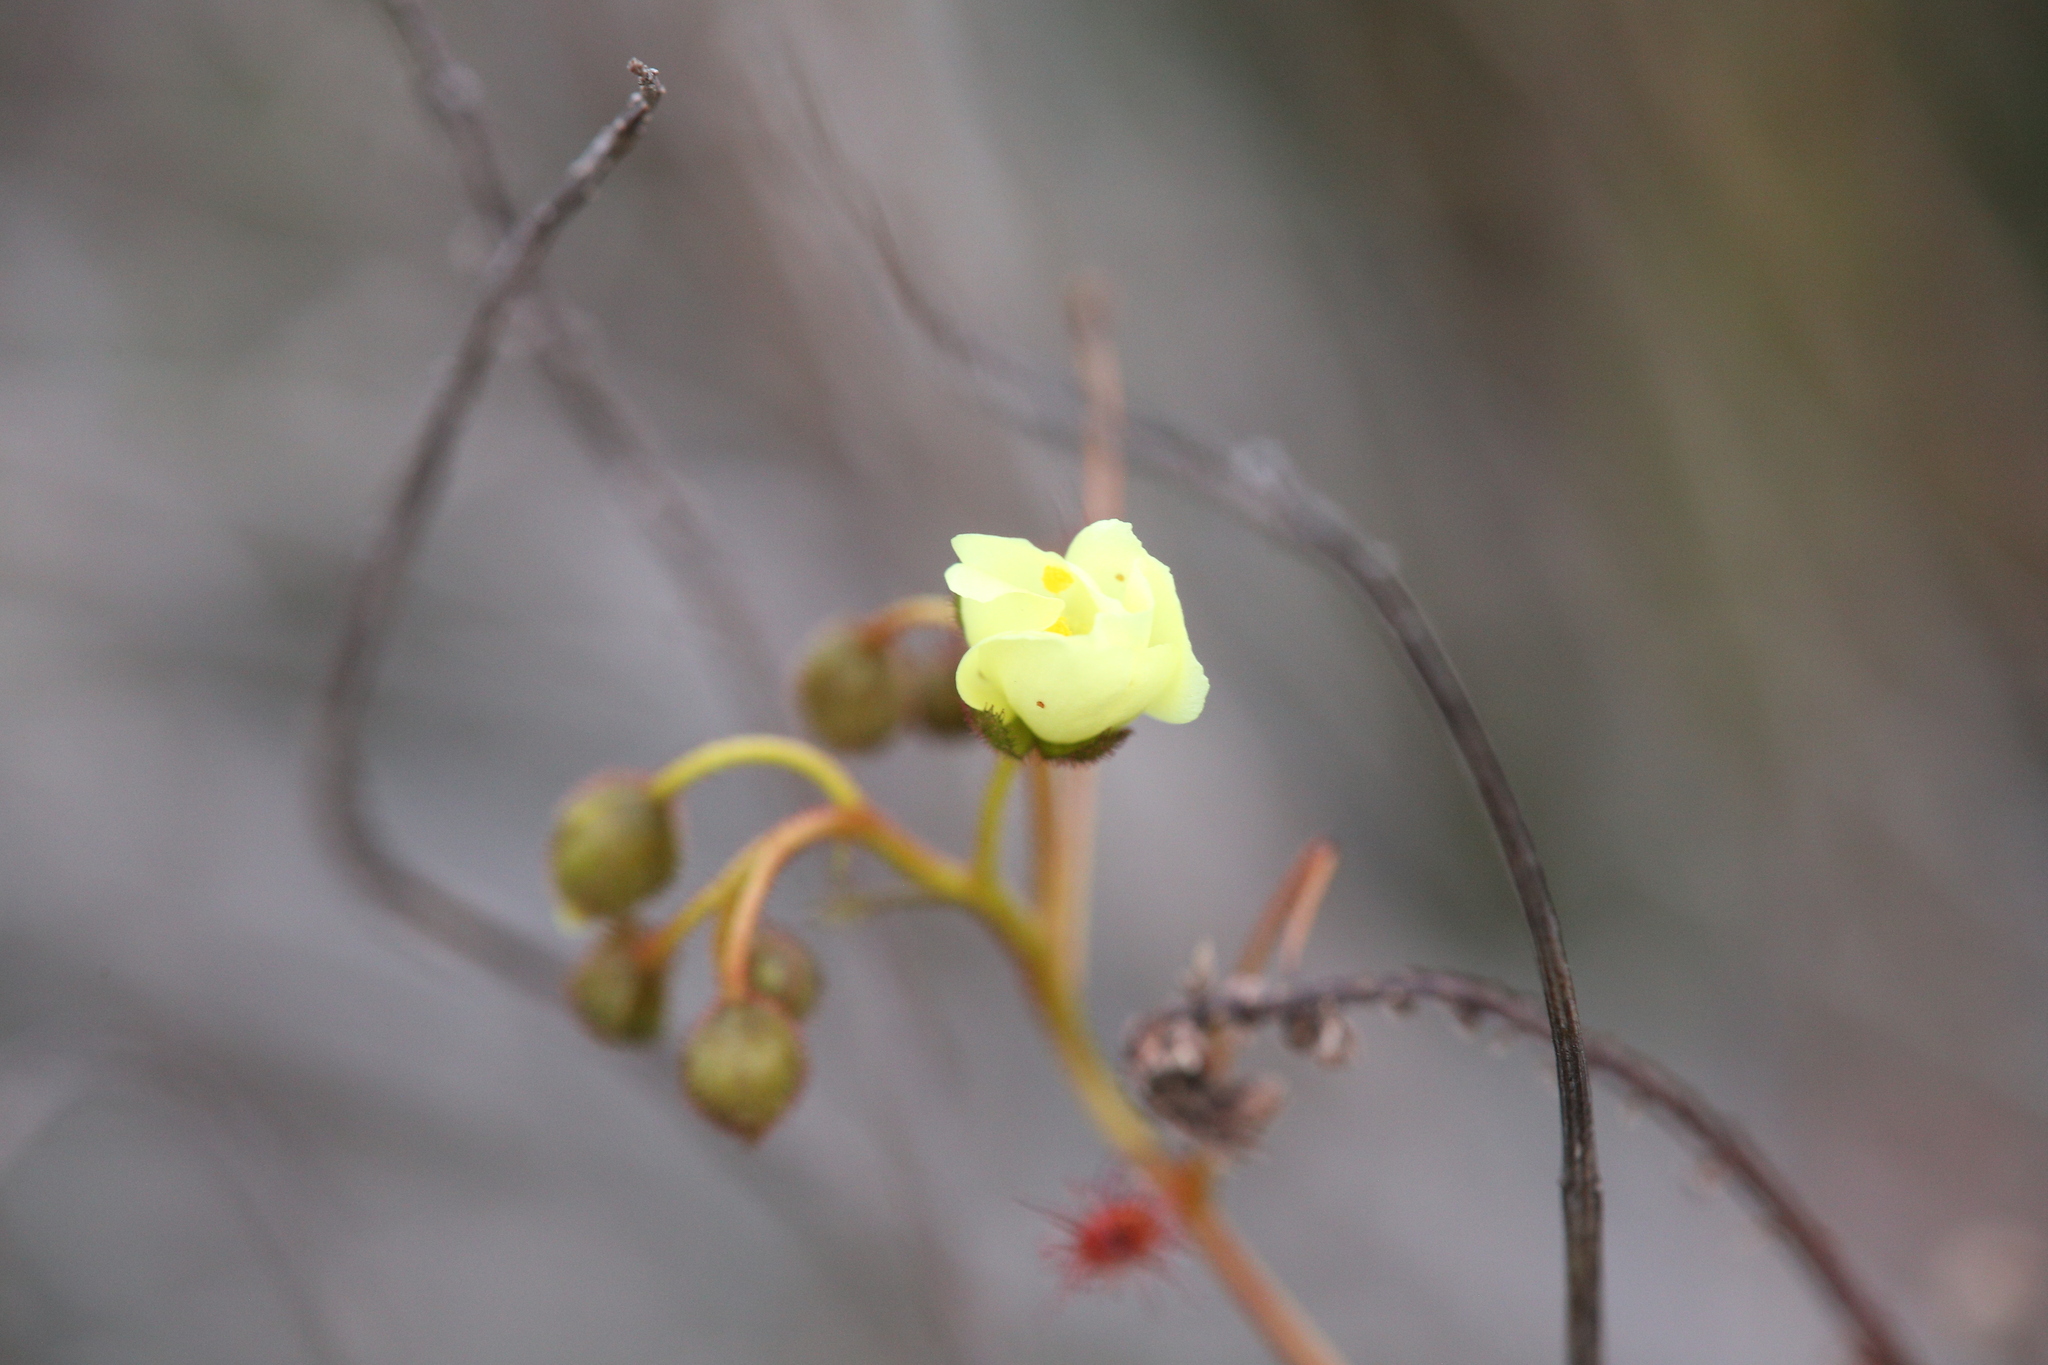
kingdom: Plantae
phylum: Tracheophyta
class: Magnoliopsida
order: Caryophyllales
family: Droseraceae
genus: Drosera
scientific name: Drosera subhirtella
